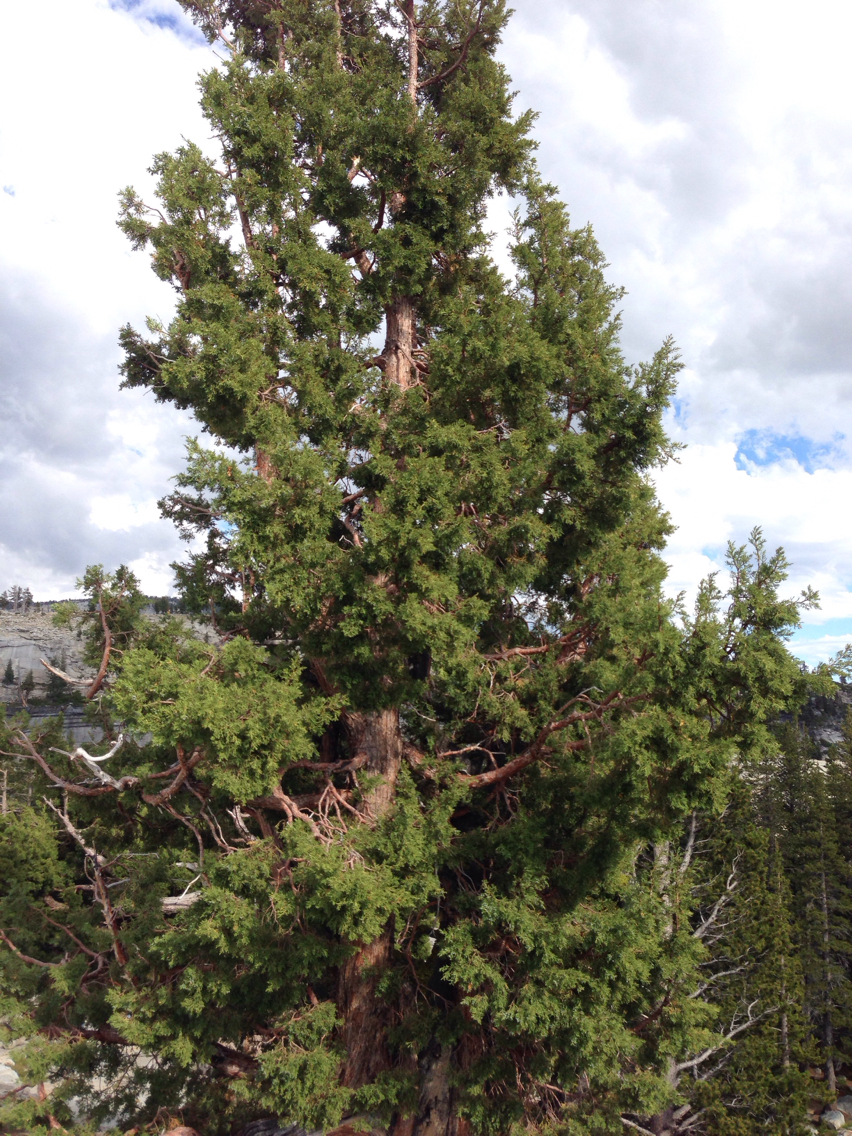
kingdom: Plantae
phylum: Tracheophyta
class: Pinopsida
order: Pinales
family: Cupressaceae
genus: Juniperus
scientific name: Juniperus occidentalis
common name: Western juniper
